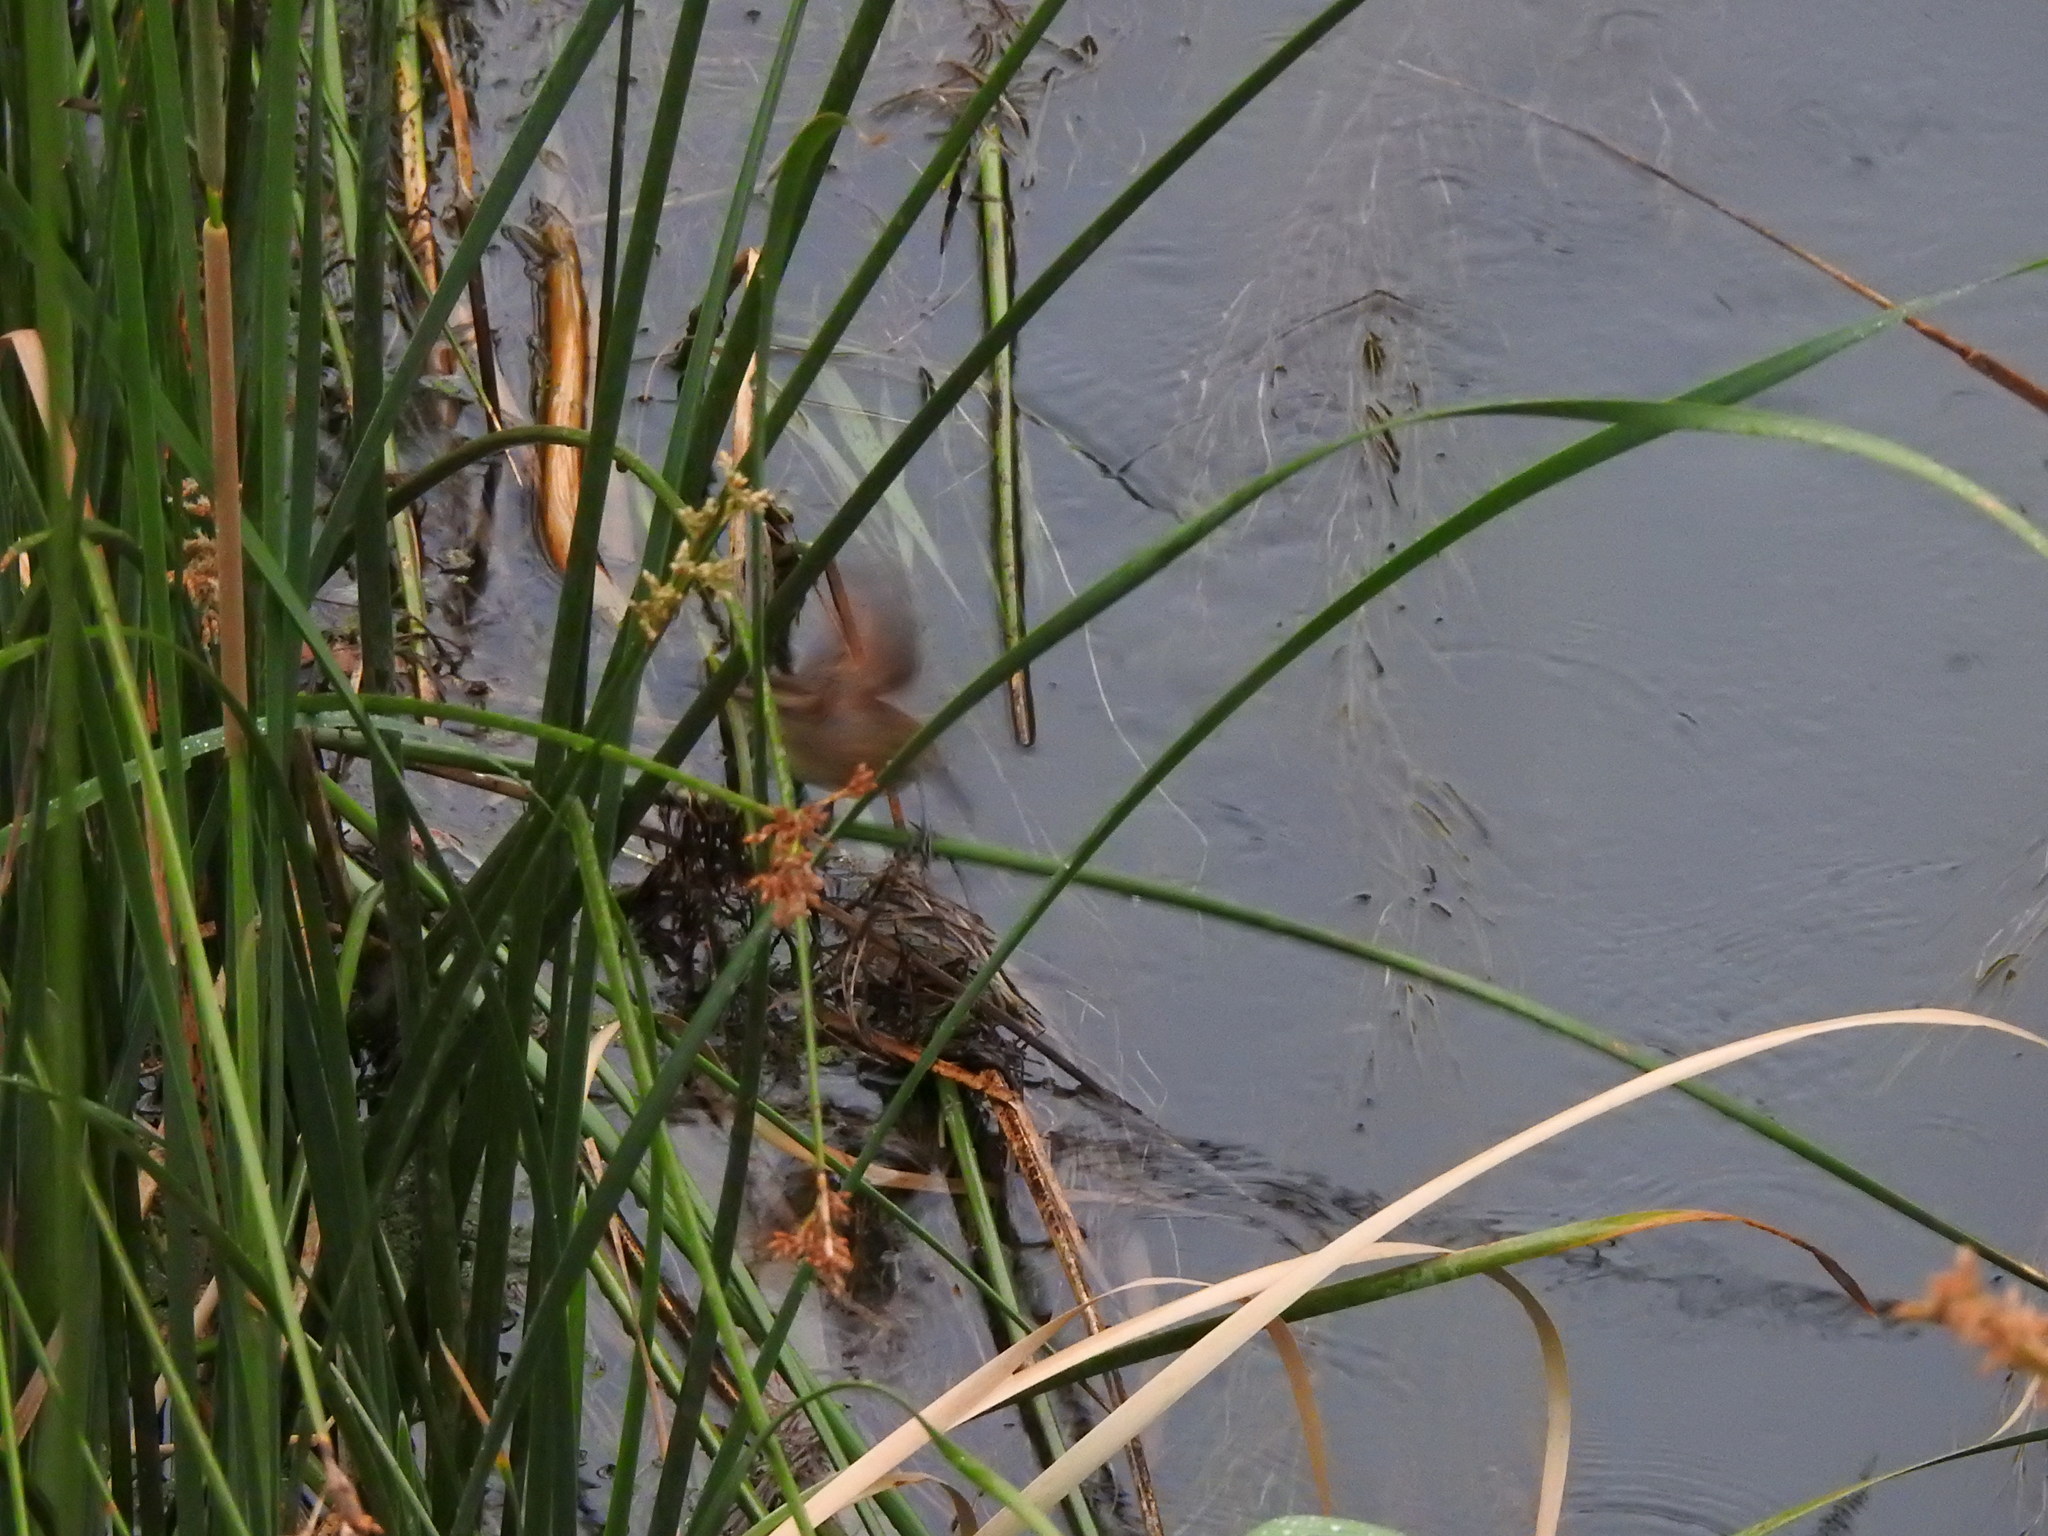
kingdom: Animalia
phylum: Chordata
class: Aves
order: Passeriformes
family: Furnariidae
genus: Phleocryptes
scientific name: Phleocryptes melanops
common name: Wren-like rushbird
